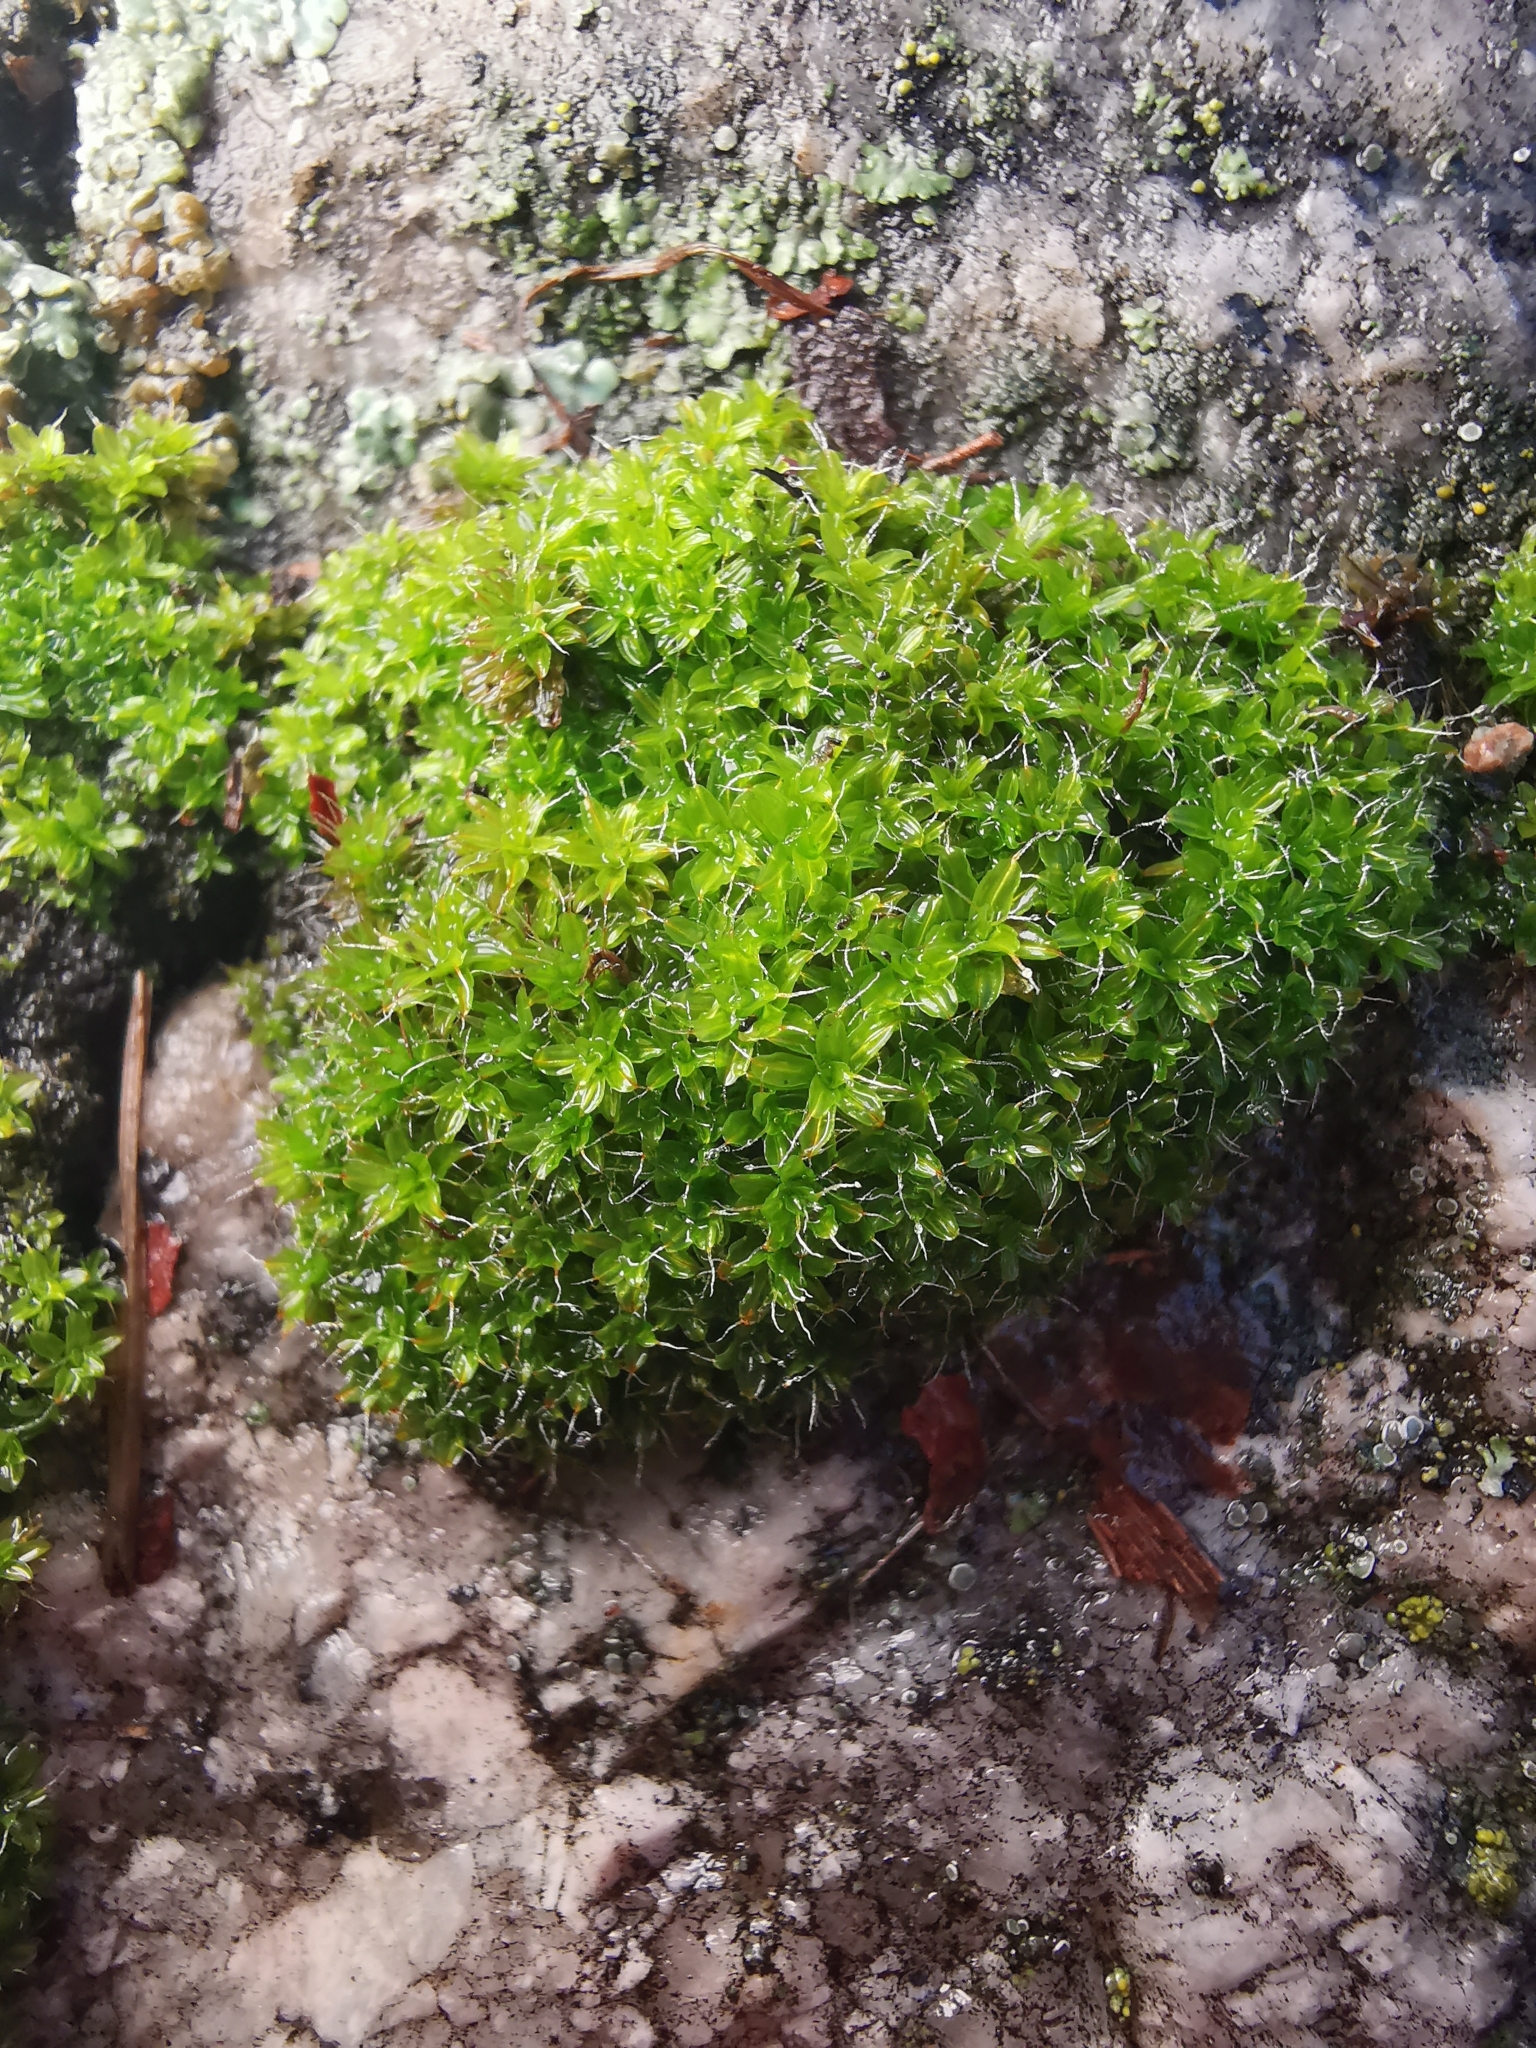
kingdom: Plantae
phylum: Bryophyta
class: Bryopsida
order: Pottiales
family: Pottiaceae
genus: Syntrichia
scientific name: Syntrichia ruralis
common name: Sidewalk screw moss
